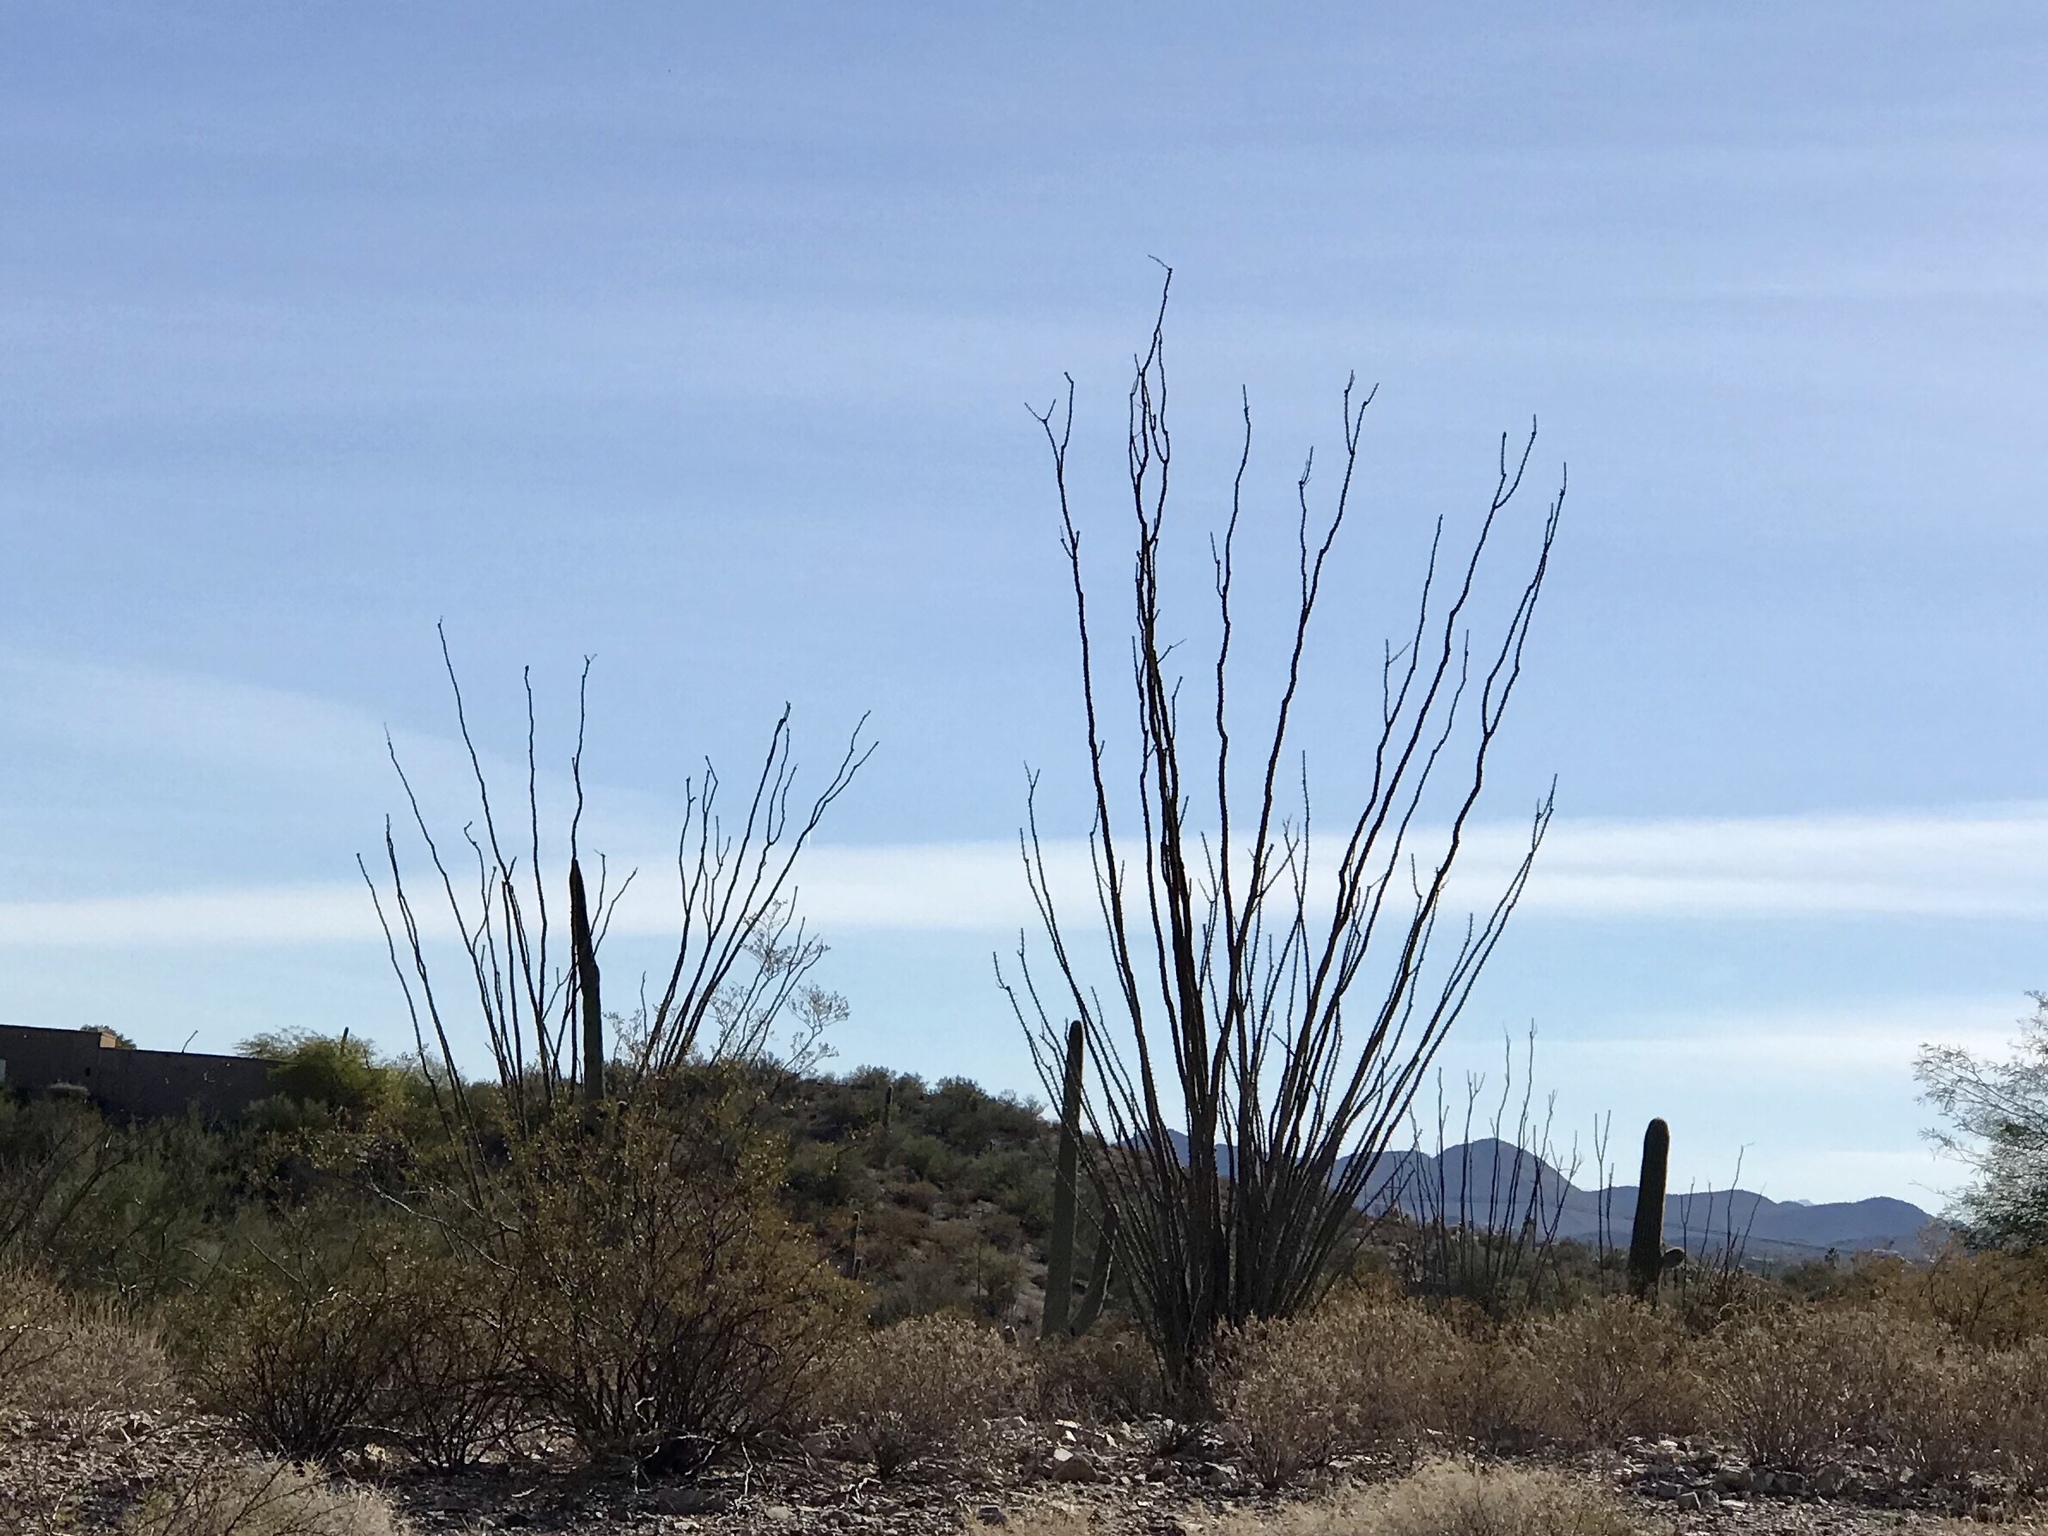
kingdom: Plantae
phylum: Tracheophyta
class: Magnoliopsida
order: Ericales
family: Fouquieriaceae
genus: Fouquieria
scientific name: Fouquieria splendens
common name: Vine-cactus
